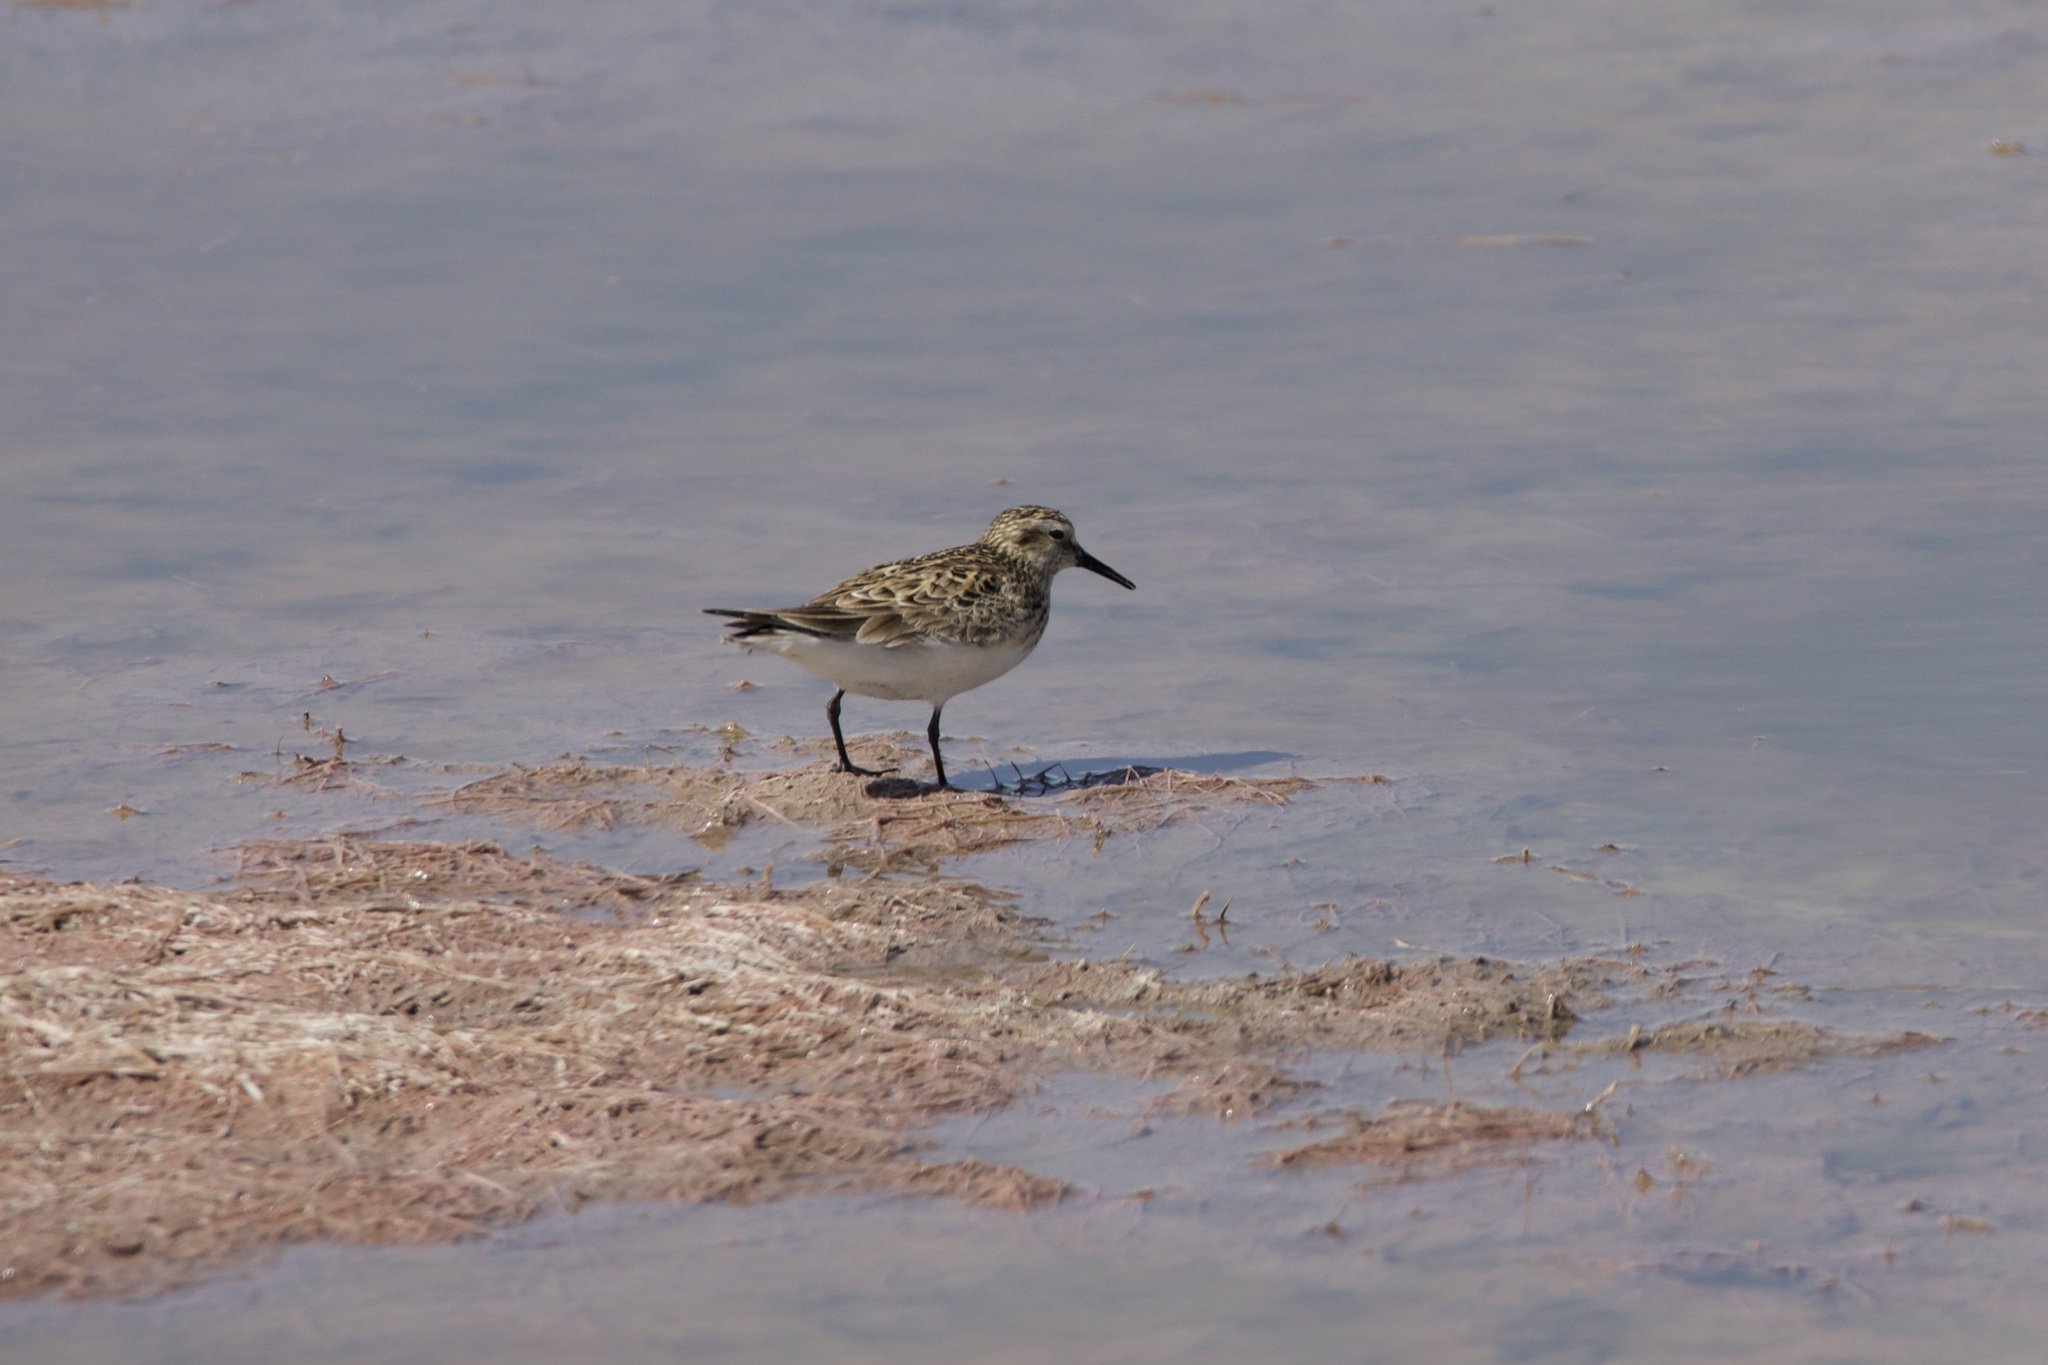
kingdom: Animalia
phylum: Chordata
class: Aves
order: Charadriiformes
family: Scolopacidae
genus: Calidris
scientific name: Calidris bairdii
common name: Baird's sandpiper
